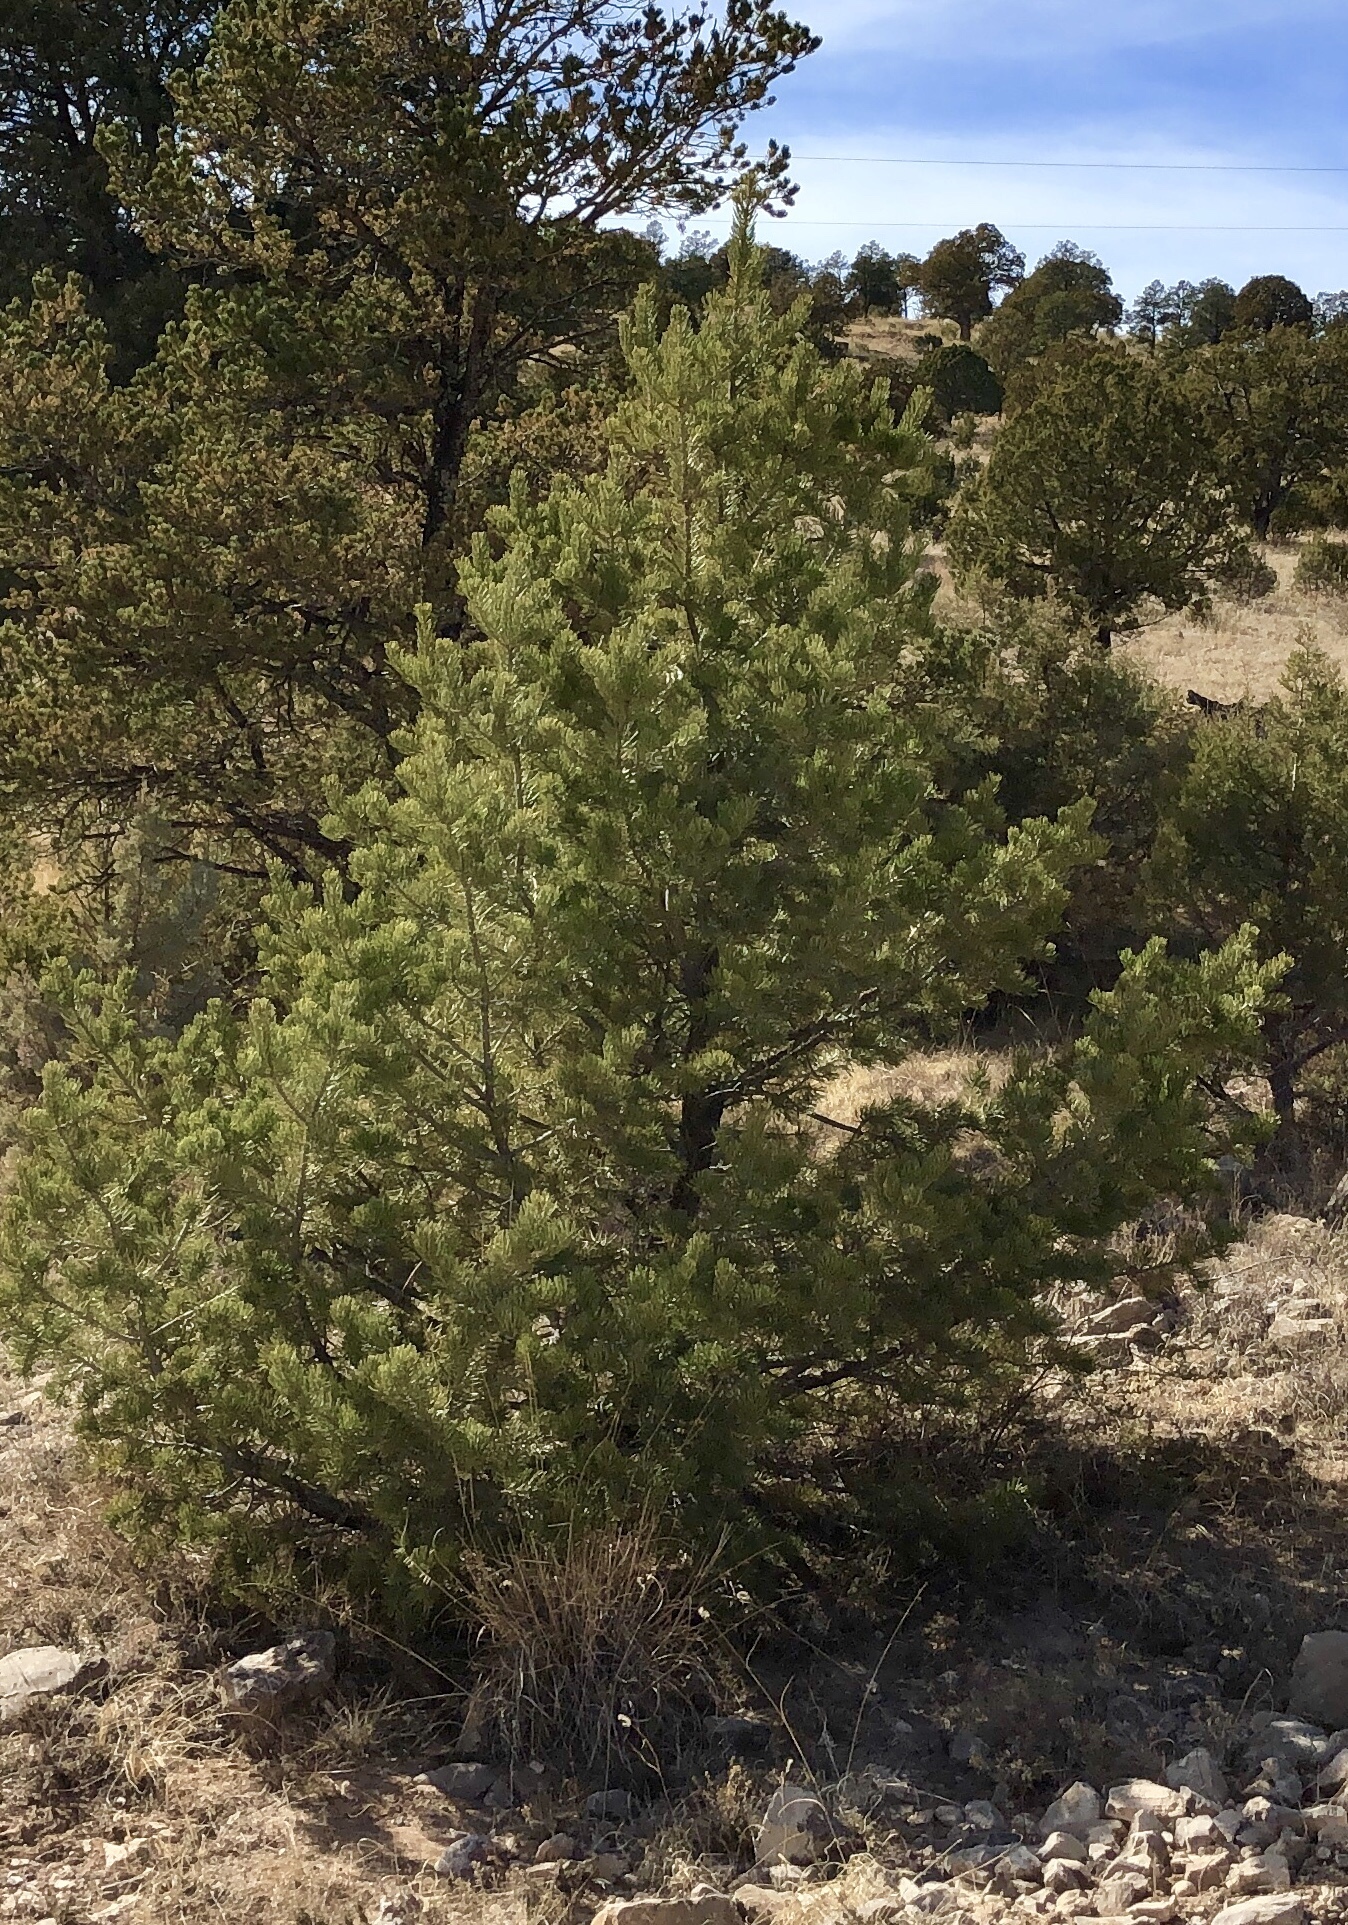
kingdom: Plantae
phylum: Tracheophyta
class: Pinopsida
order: Pinales
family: Pinaceae
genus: Pinus
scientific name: Pinus edulis
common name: Colorado pinyon
